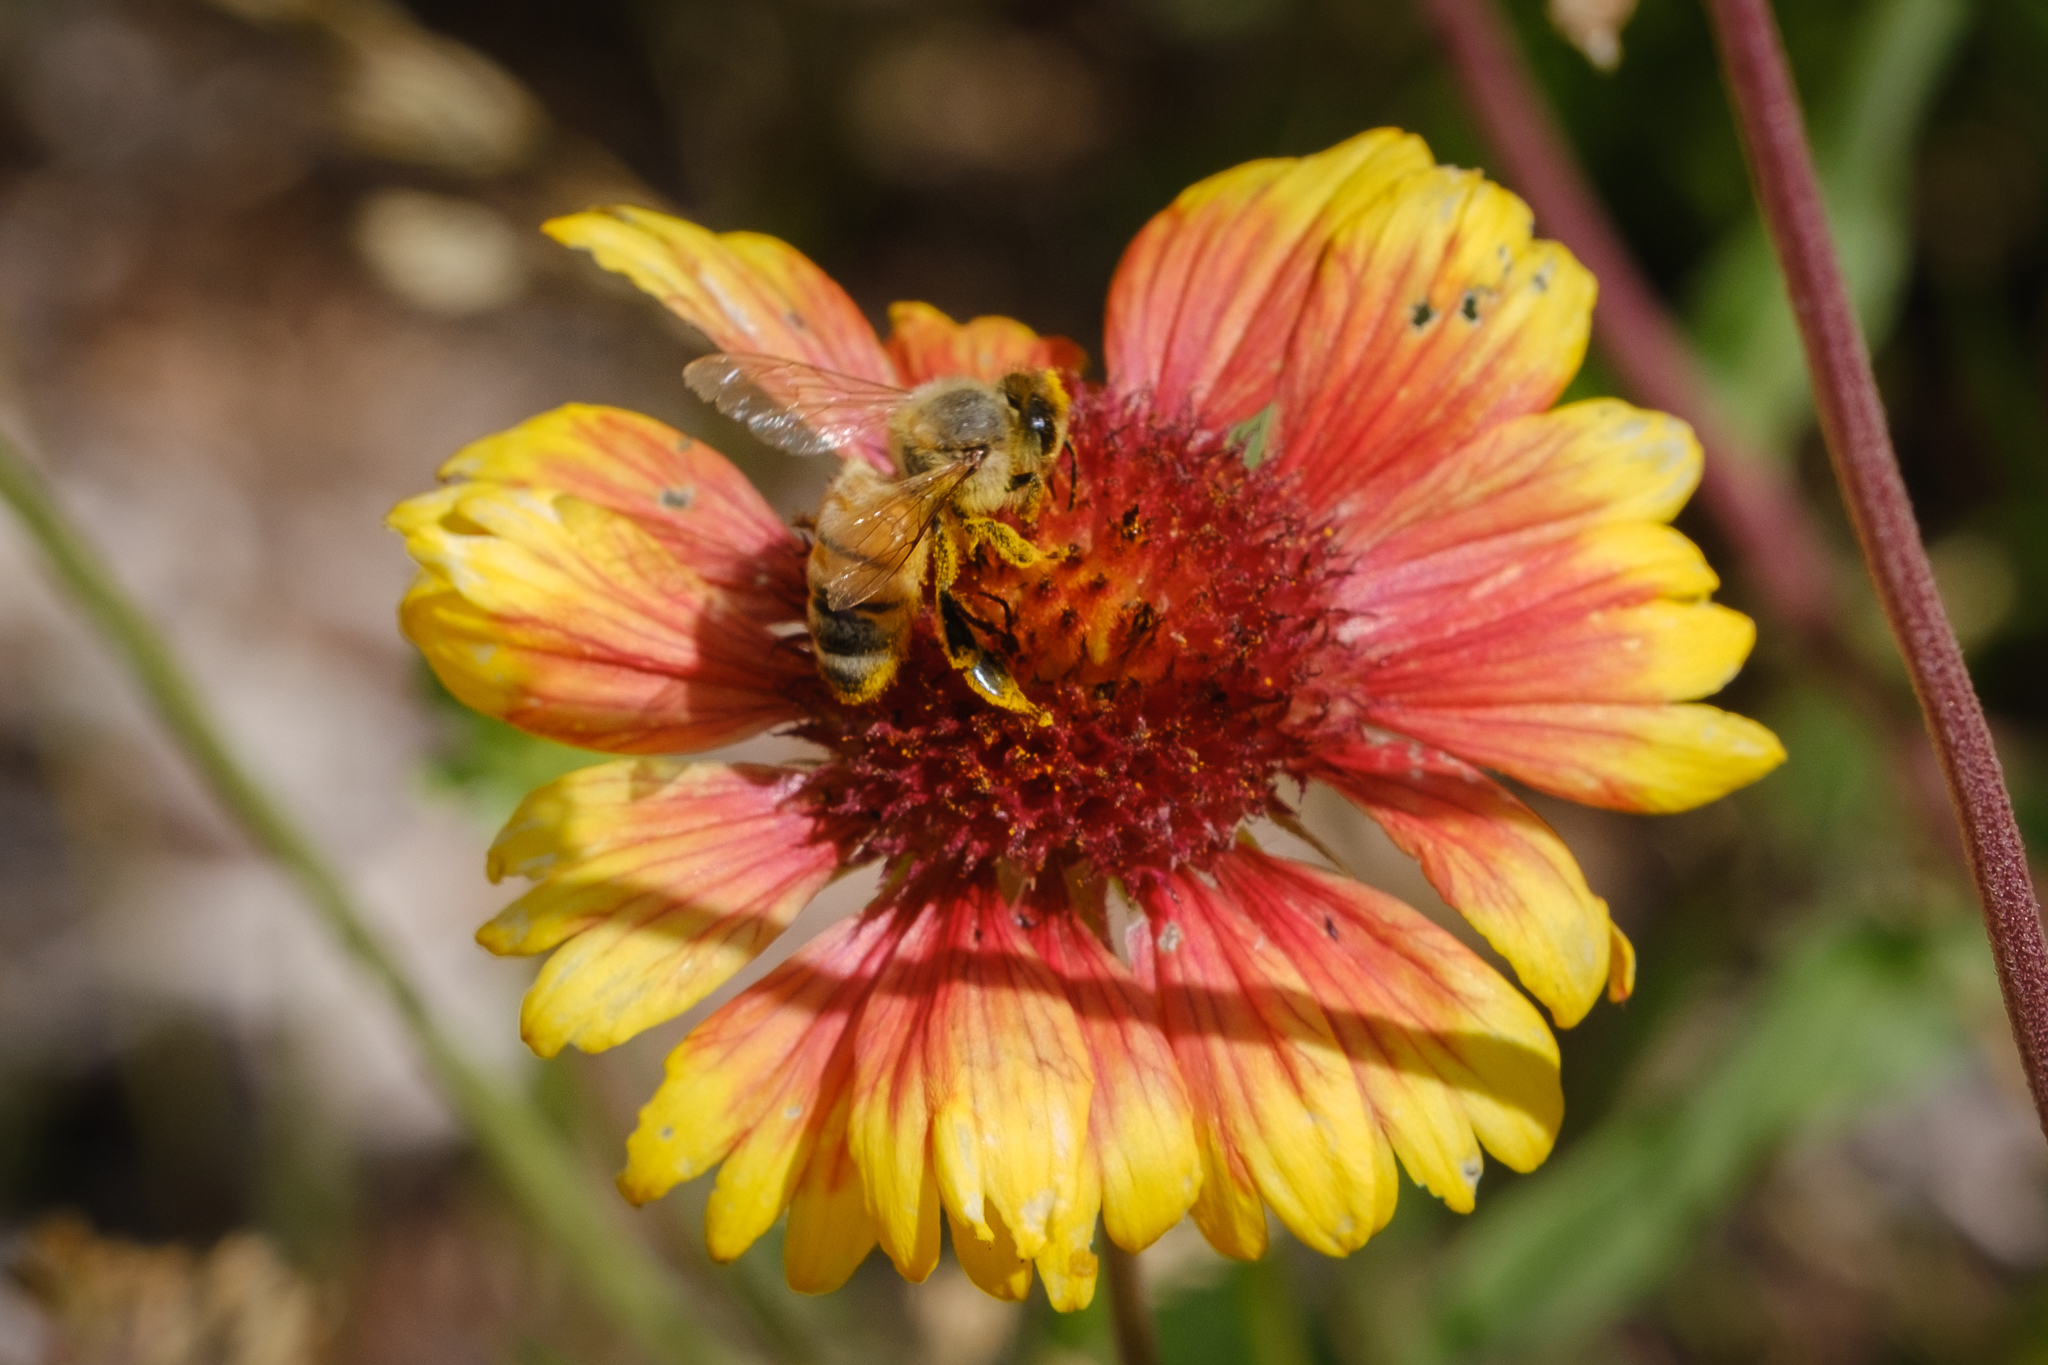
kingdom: Animalia
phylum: Arthropoda
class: Insecta
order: Hymenoptera
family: Apidae
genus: Apis
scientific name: Apis mellifera
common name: Honey bee
